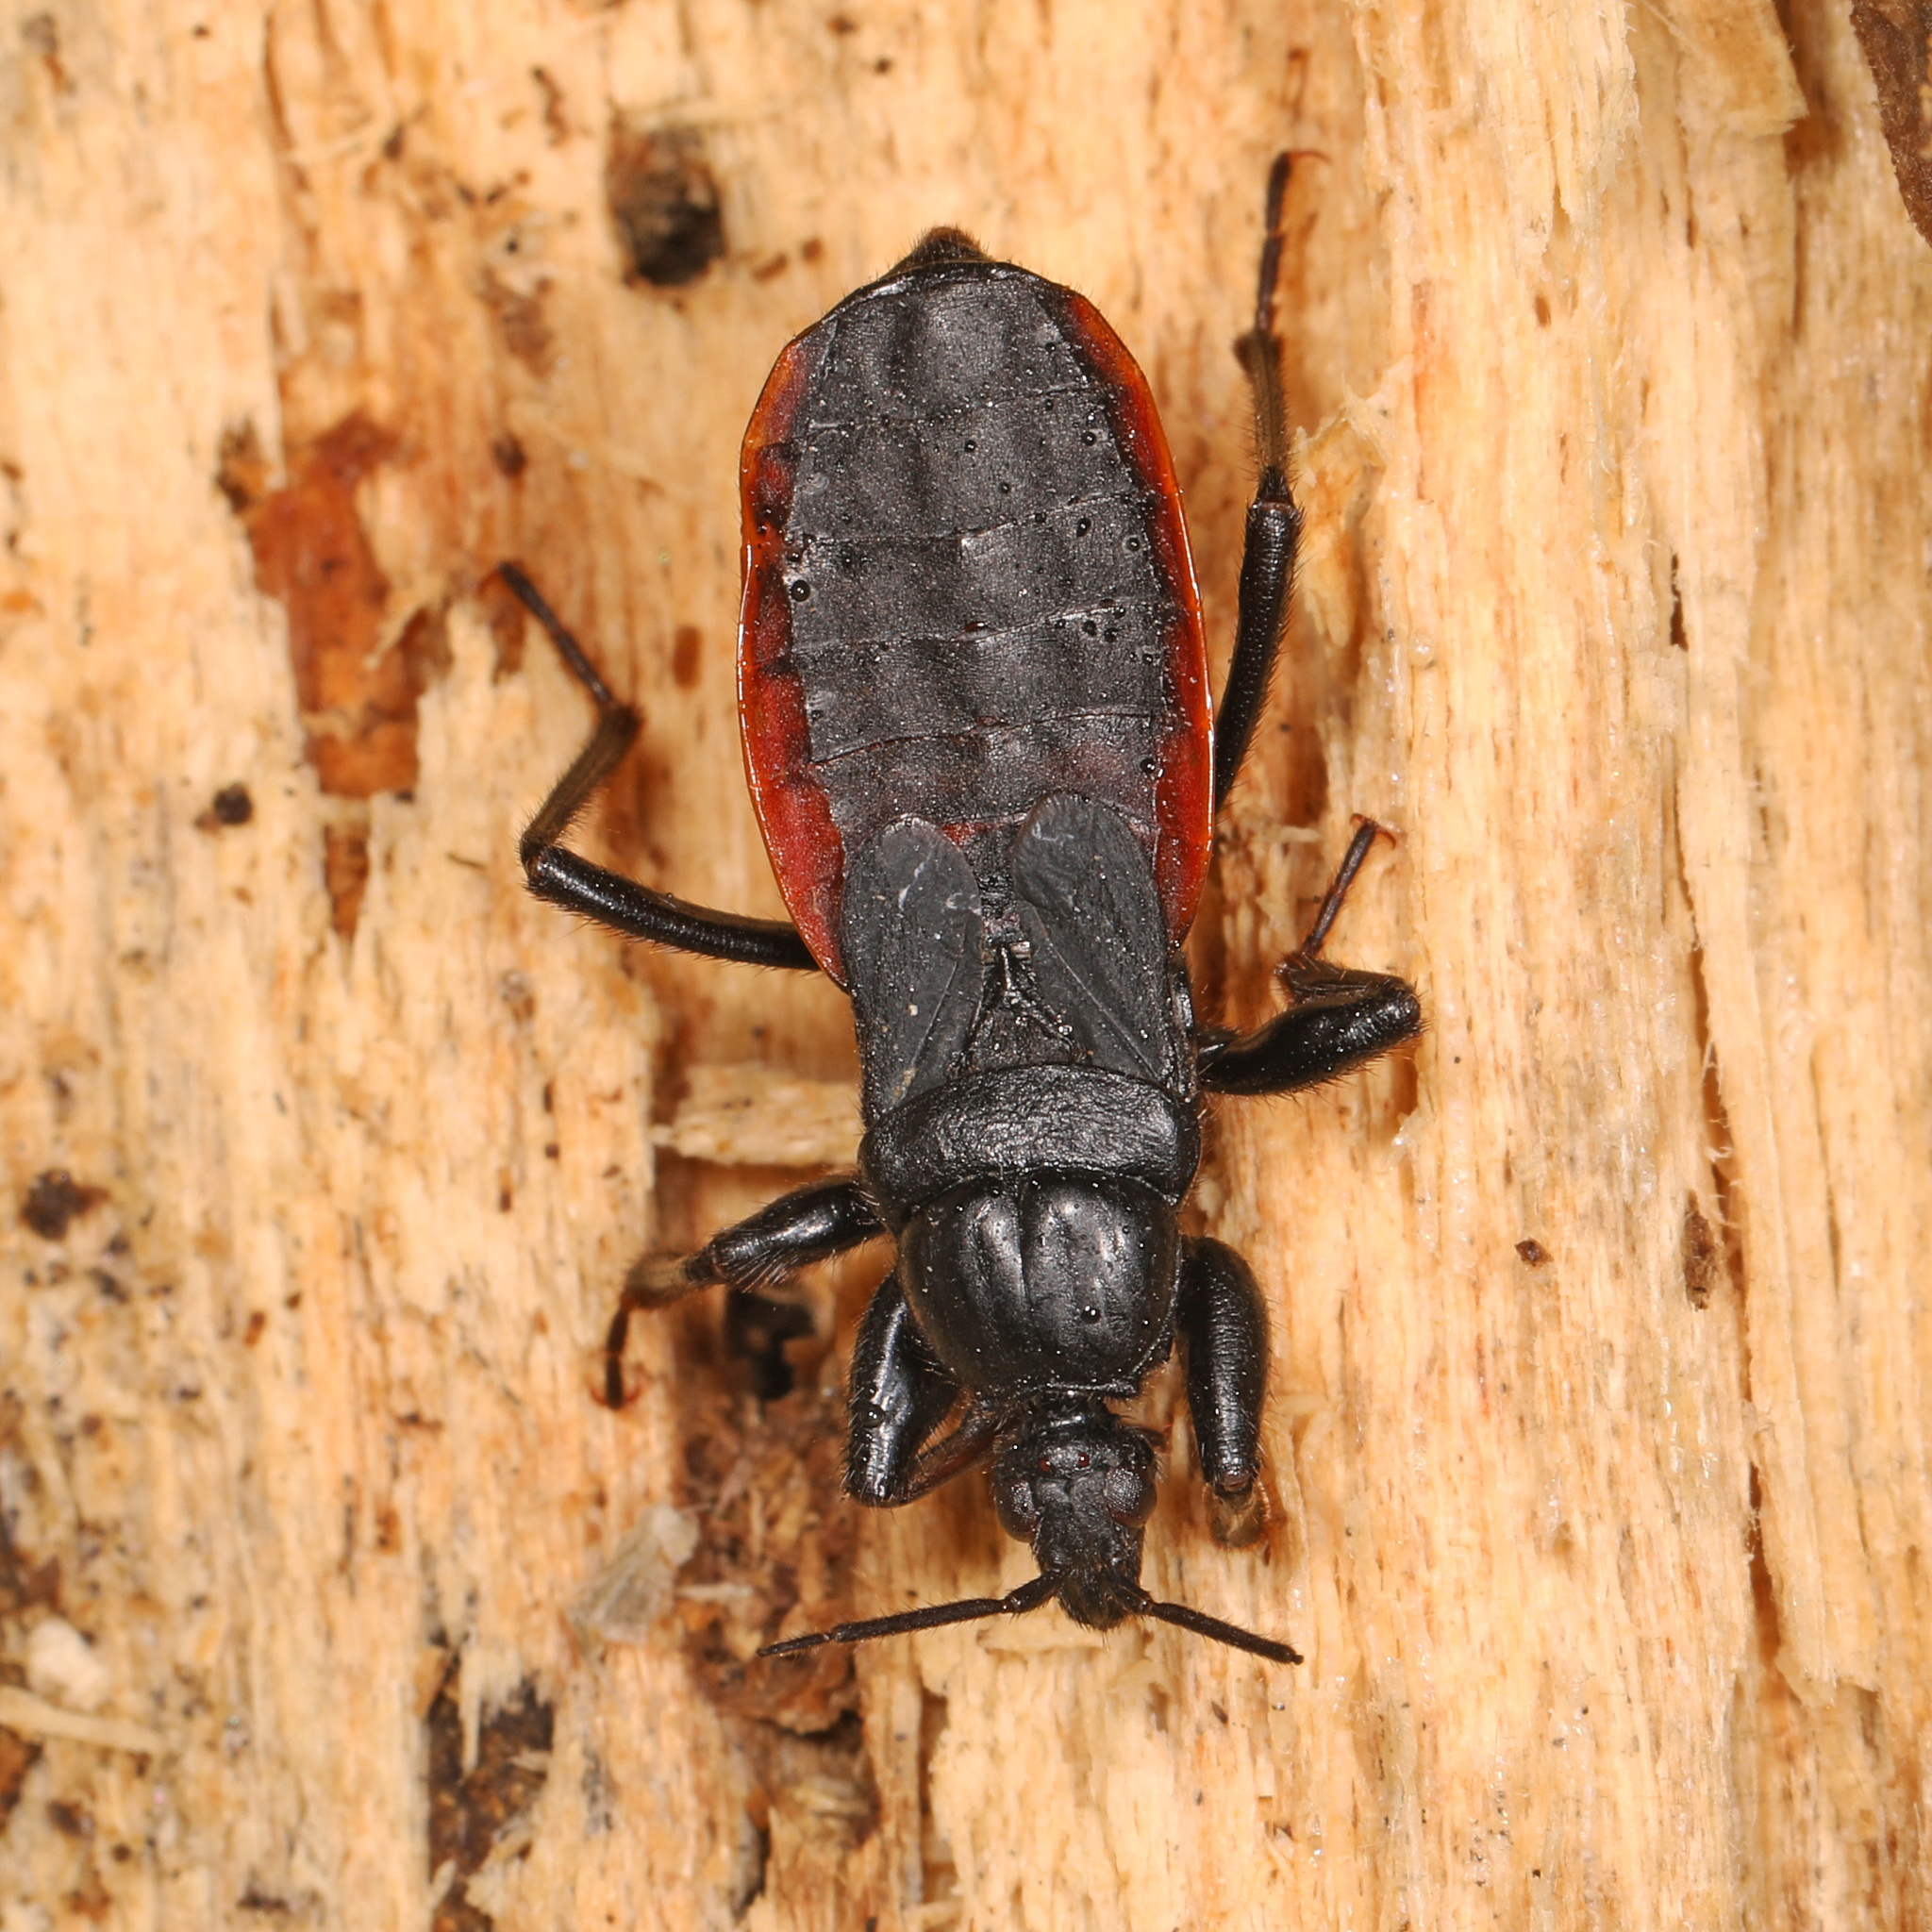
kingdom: Animalia
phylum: Arthropoda
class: Insecta
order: Hemiptera
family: Reduviidae
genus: Melanolestes
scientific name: Melanolestes picipes
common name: Assassin bug
